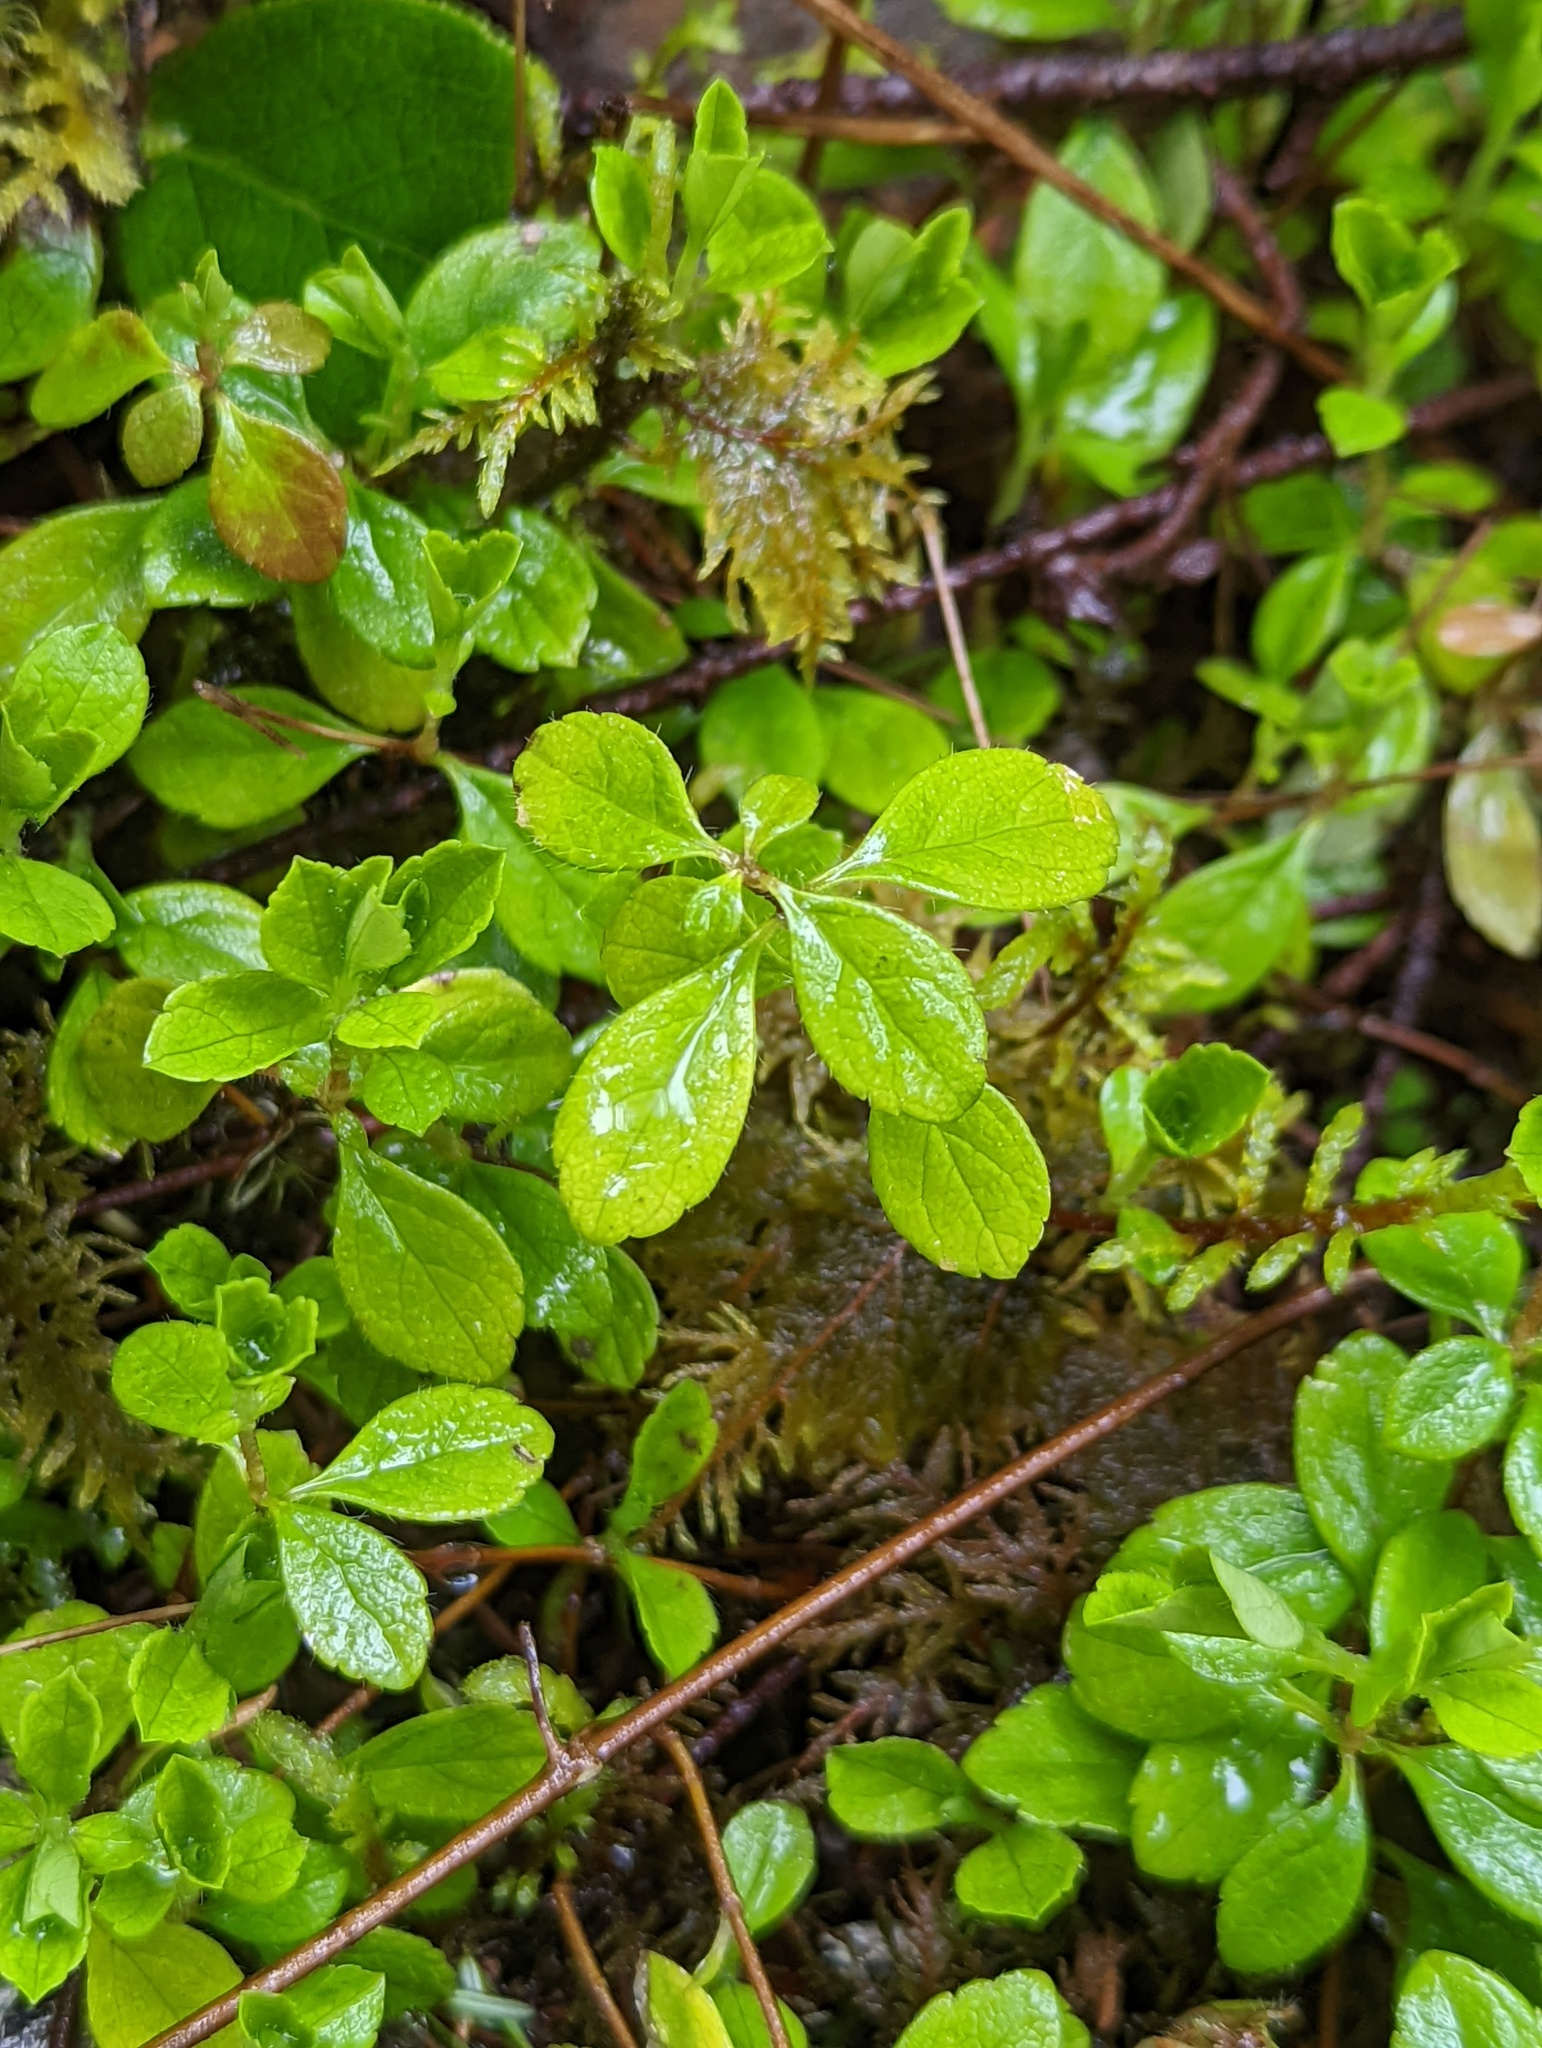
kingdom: Plantae
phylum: Tracheophyta
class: Magnoliopsida
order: Dipsacales
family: Caprifoliaceae
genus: Linnaea
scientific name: Linnaea borealis
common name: Twinflower
